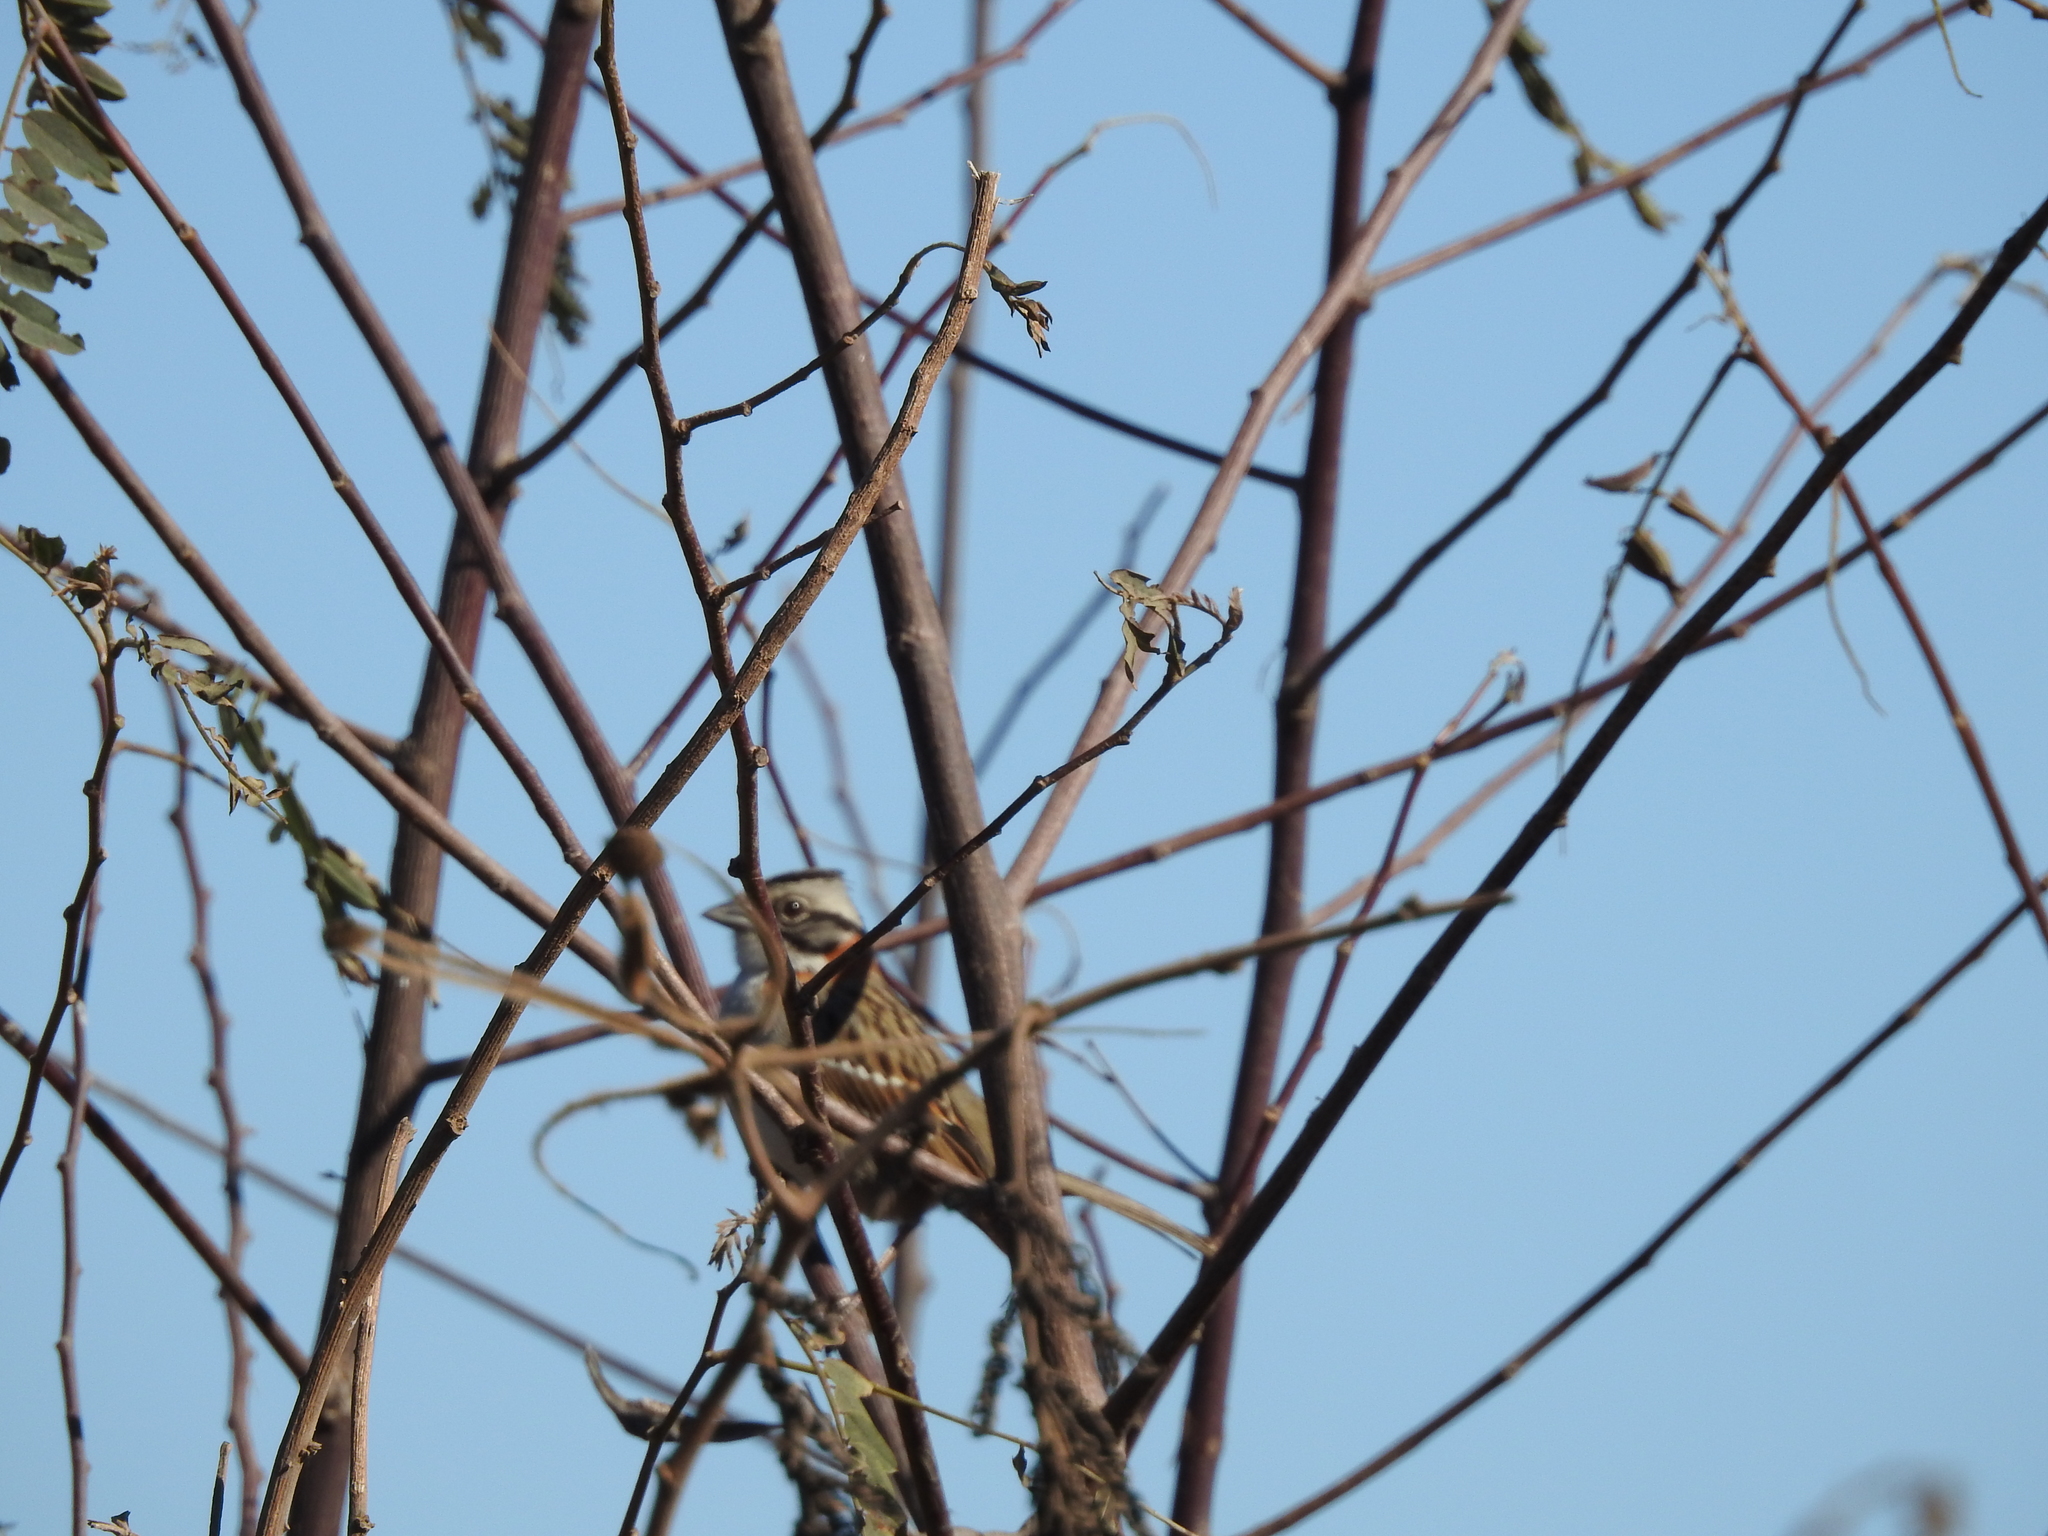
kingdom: Animalia
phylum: Chordata
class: Aves
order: Passeriformes
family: Passerellidae
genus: Zonotrichia
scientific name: Zonotrichia capensis
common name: Rufous-collared sparrow
